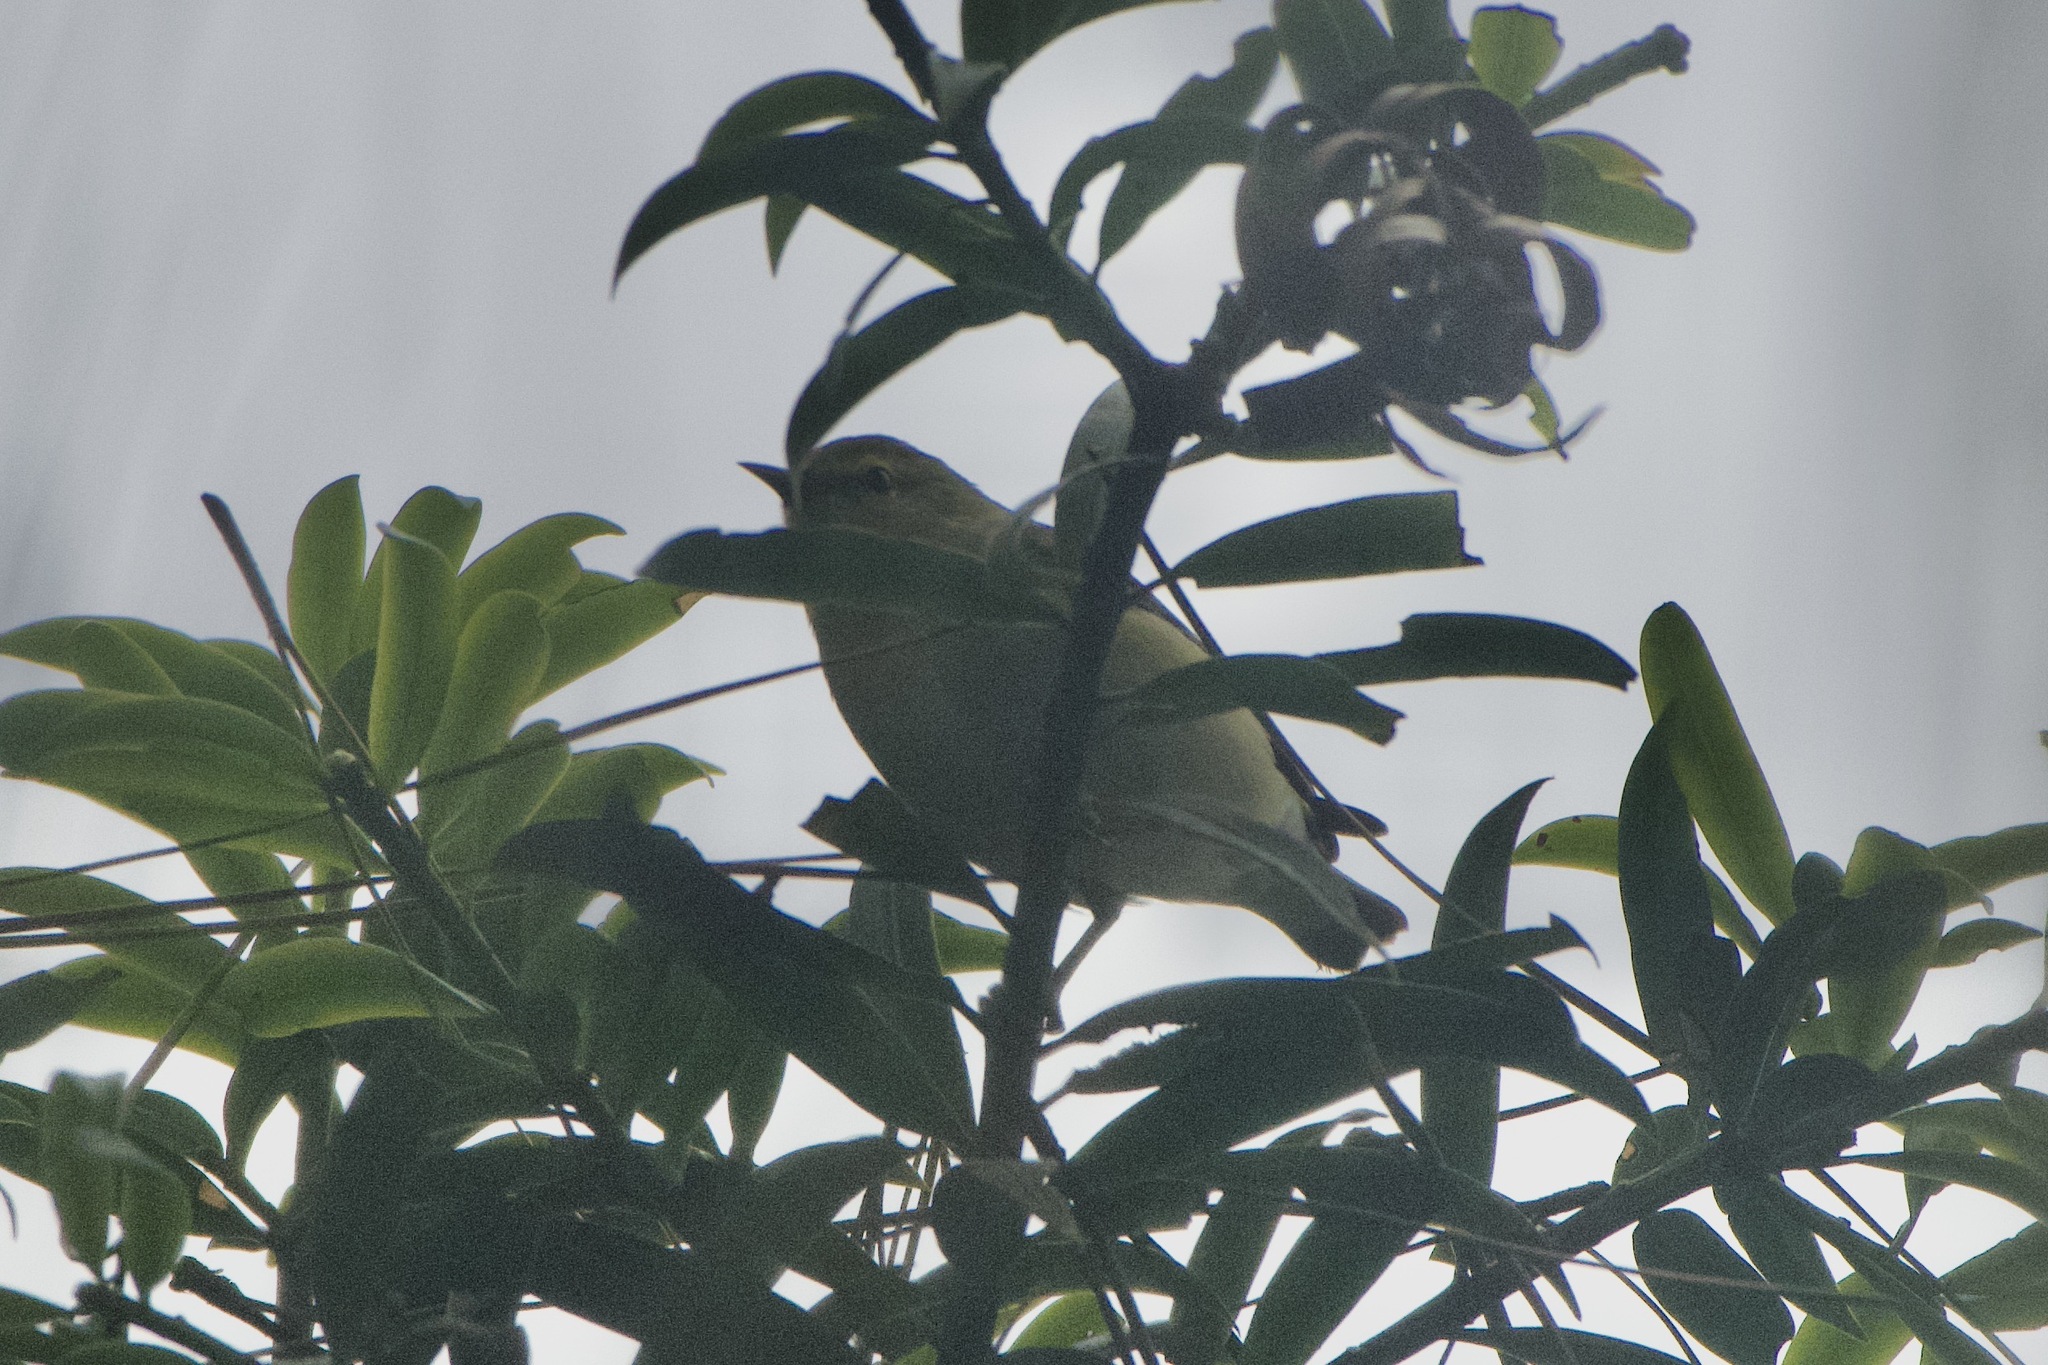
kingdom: Animalia
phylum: Chordata
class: Aves
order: Passeriformes
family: Parulidae
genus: Leiothlypis
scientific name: Leiothlypis peregrina
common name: Tennessee warbler
